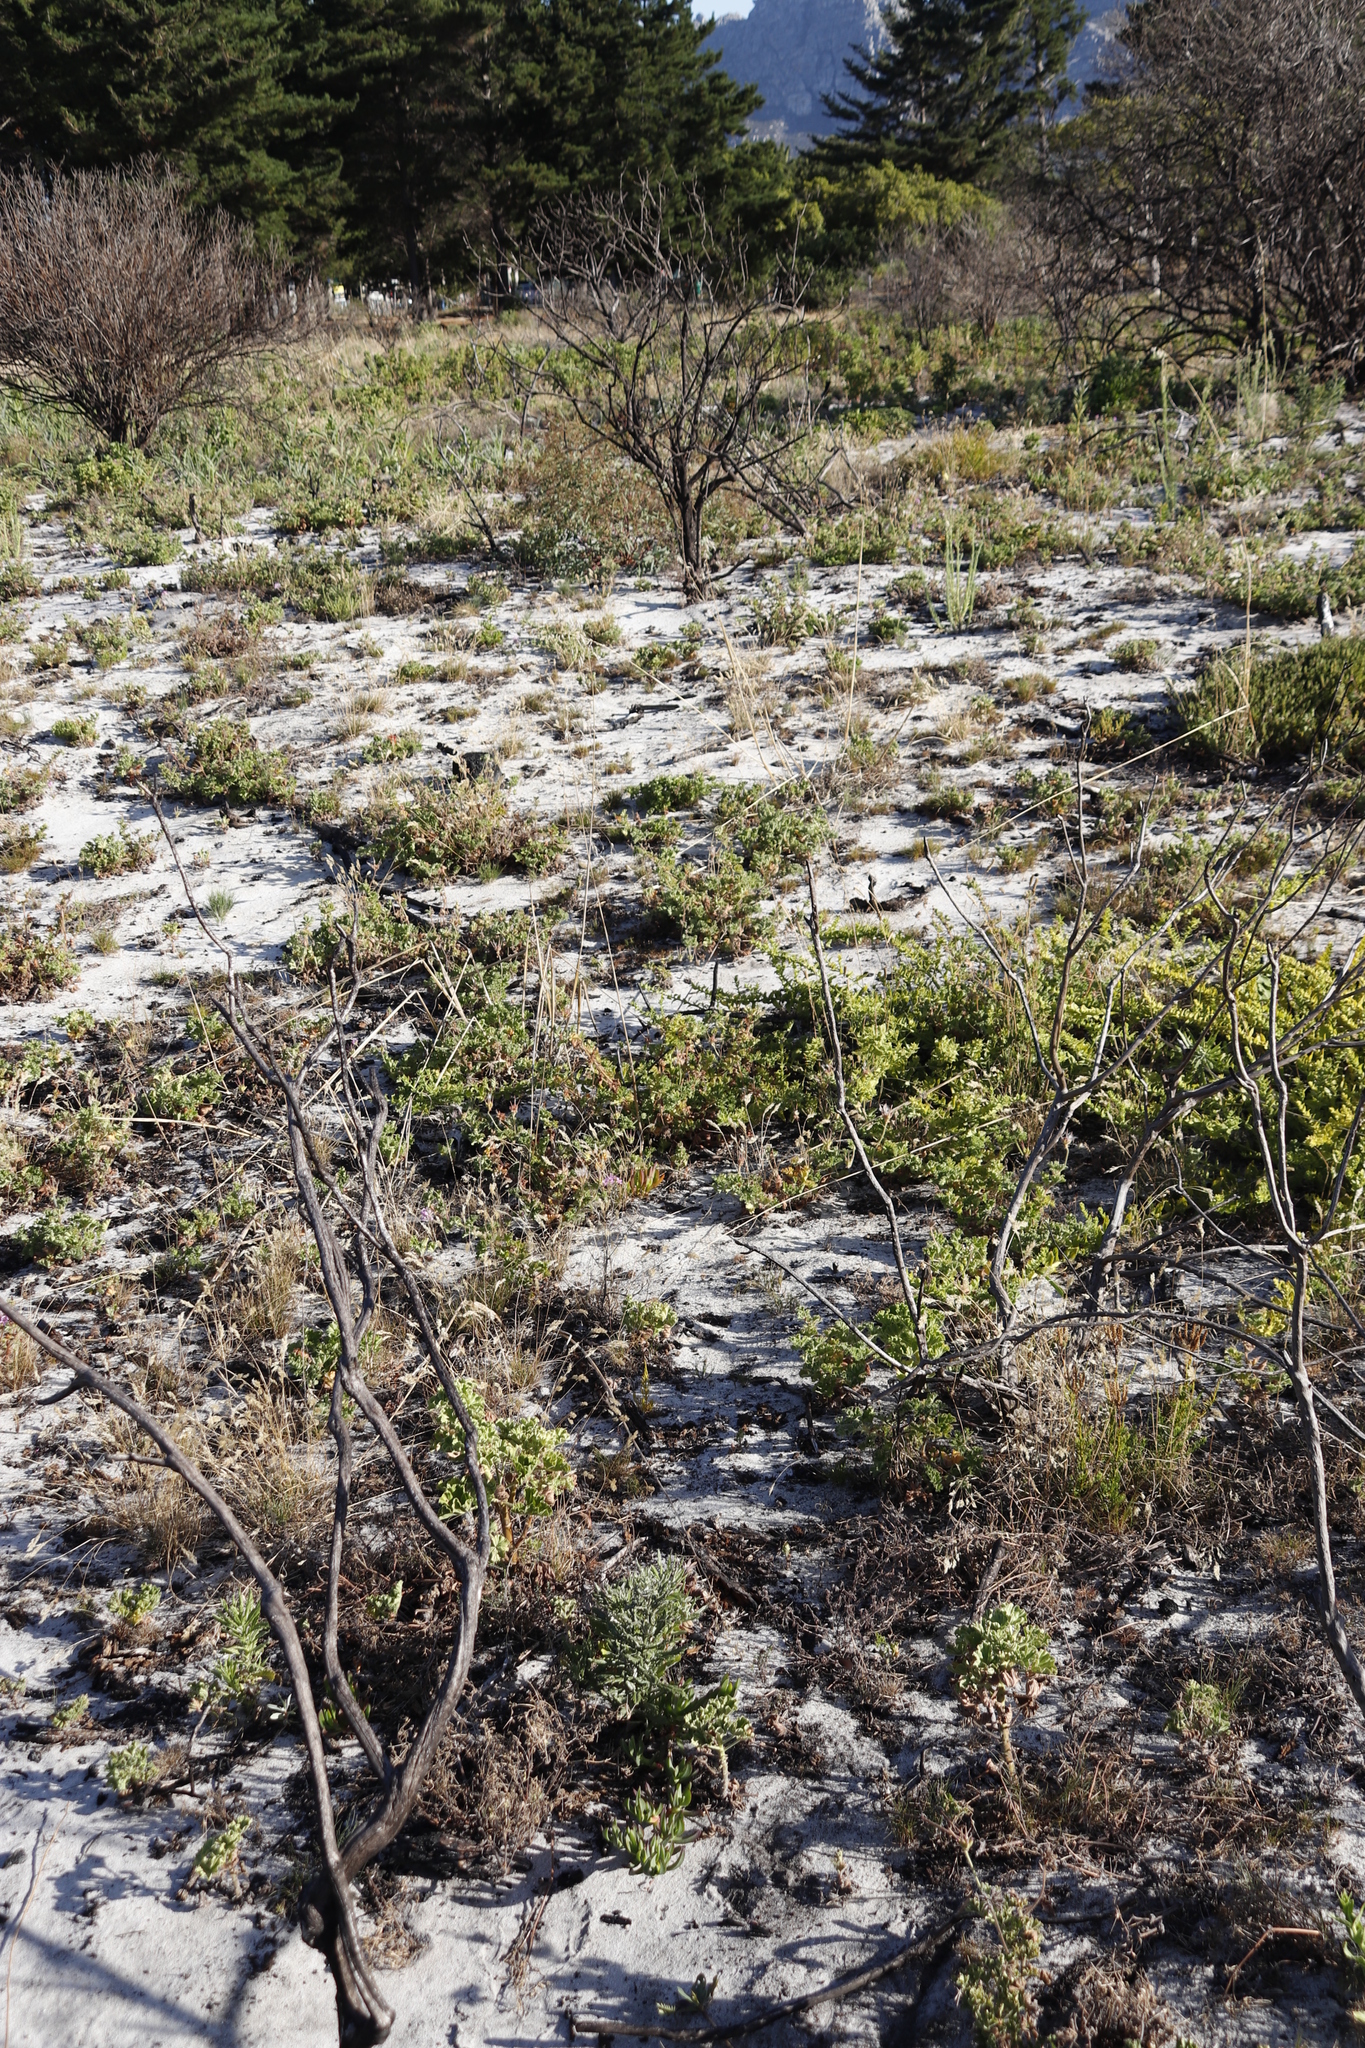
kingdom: Plantae
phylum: Tracheophyta
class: Magnoliopsida
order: Geraniales
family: Geraniaceae
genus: Pelargonium
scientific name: Pelargonium capitatum
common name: Rose scented geranium
